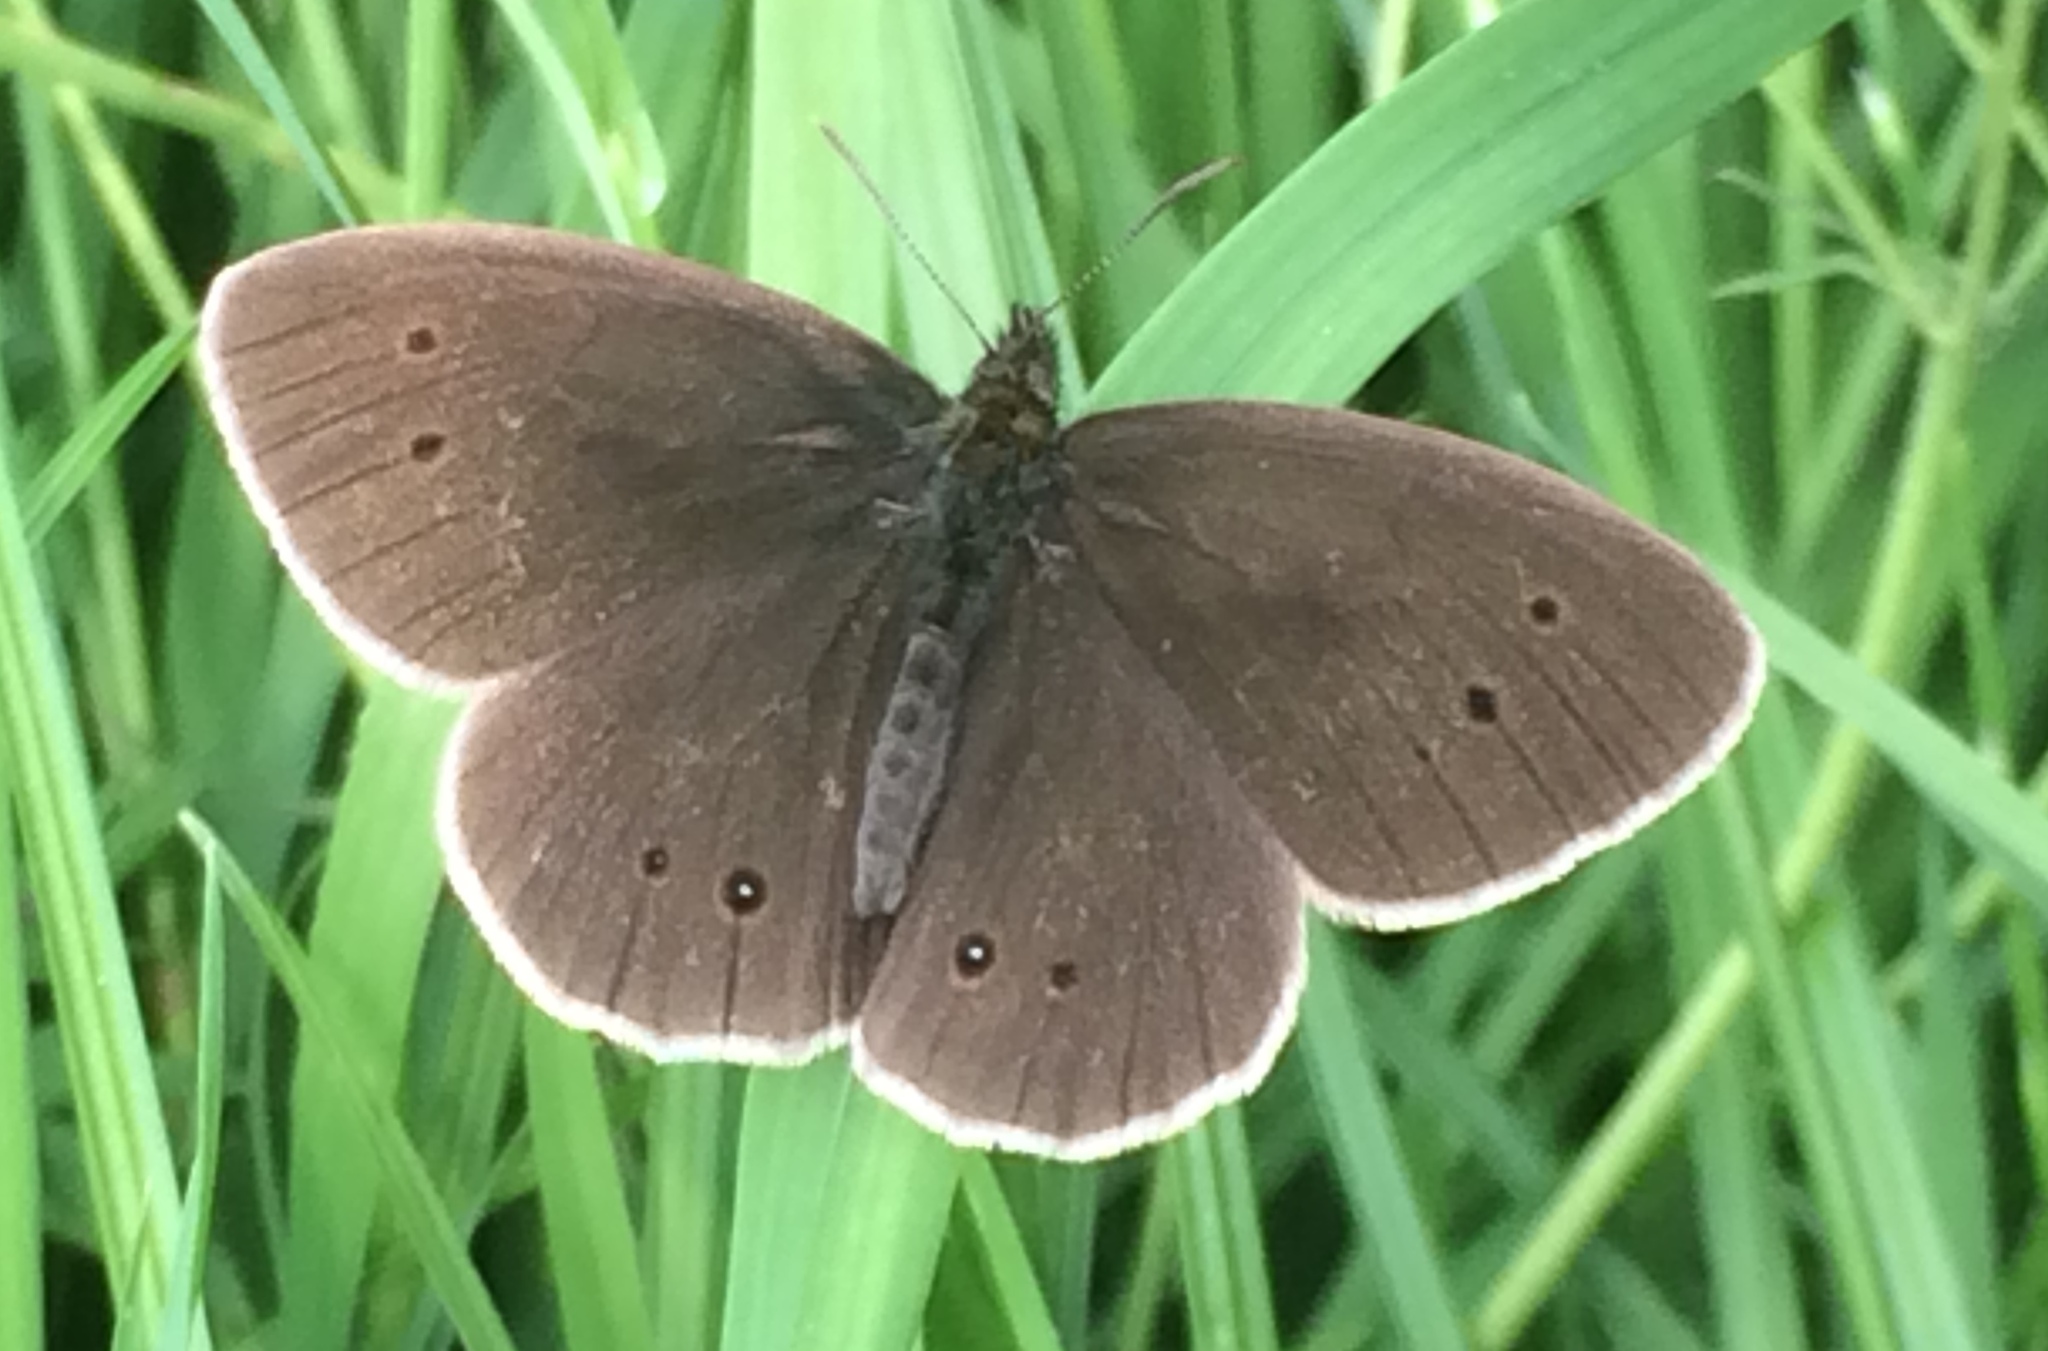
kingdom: Animalia
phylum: Arthropoda
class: Insecta
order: Lepidoptera
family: Nymphalidae
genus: Aphantopus
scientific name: Aphantopus hyperantus
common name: Ringlet
